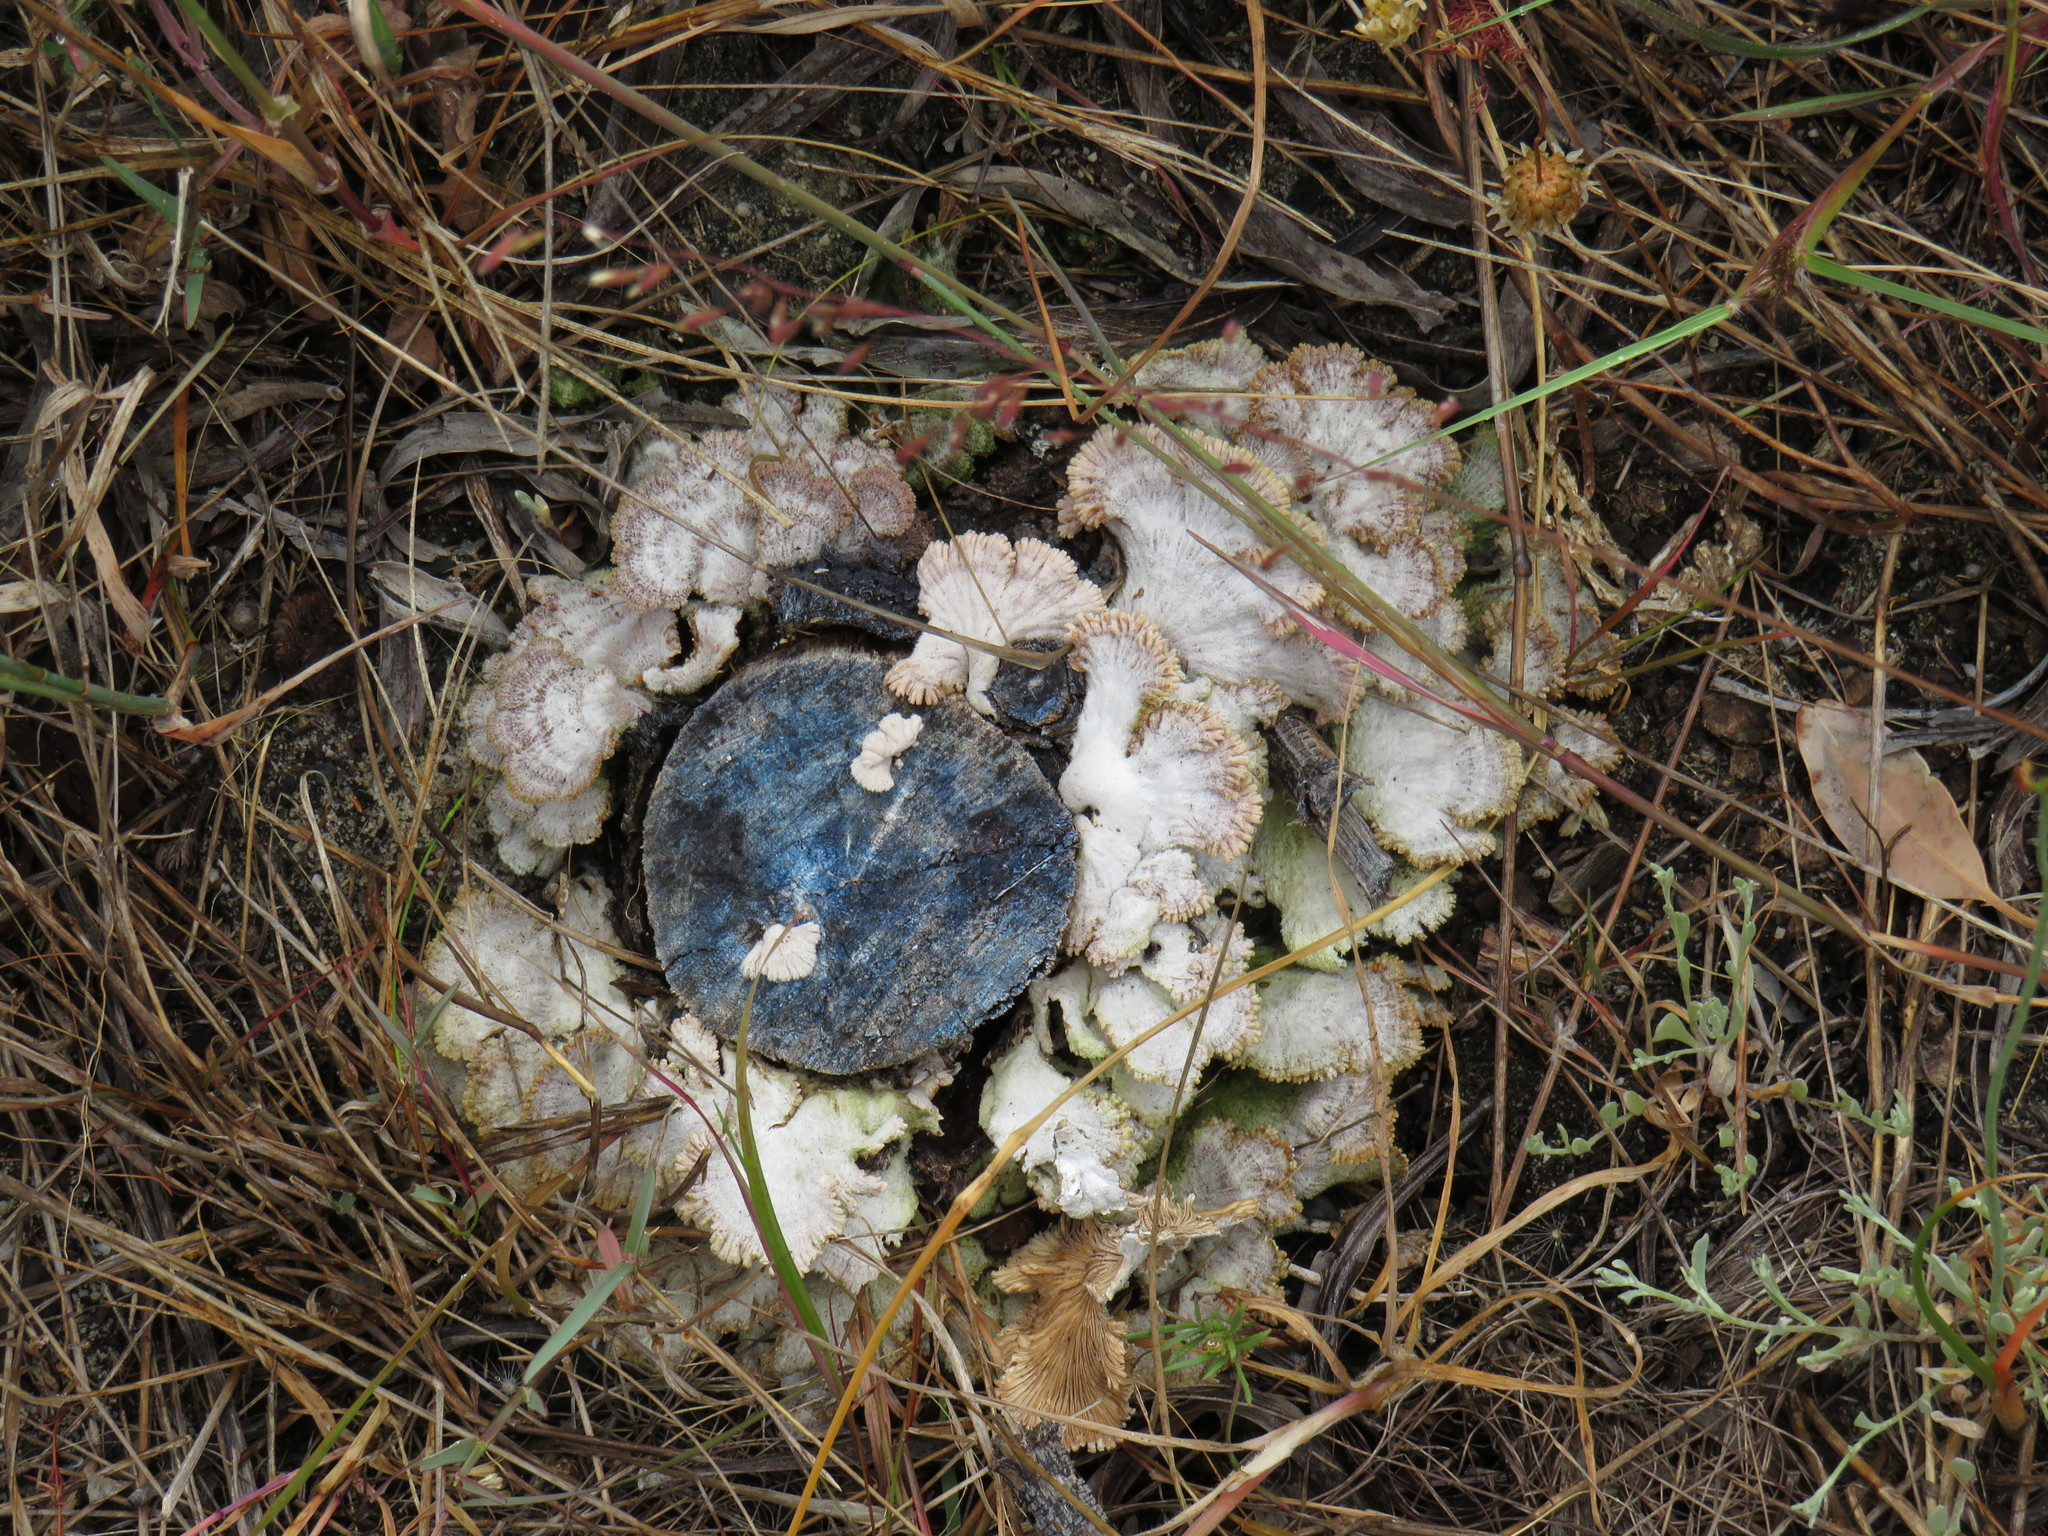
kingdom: Fungi
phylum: Basidiomycota
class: Agaricomycetes
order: Agaricales
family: Schizophyllaceae
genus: Schizophyllum
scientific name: Schizophyllum commune
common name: Common porecrust
